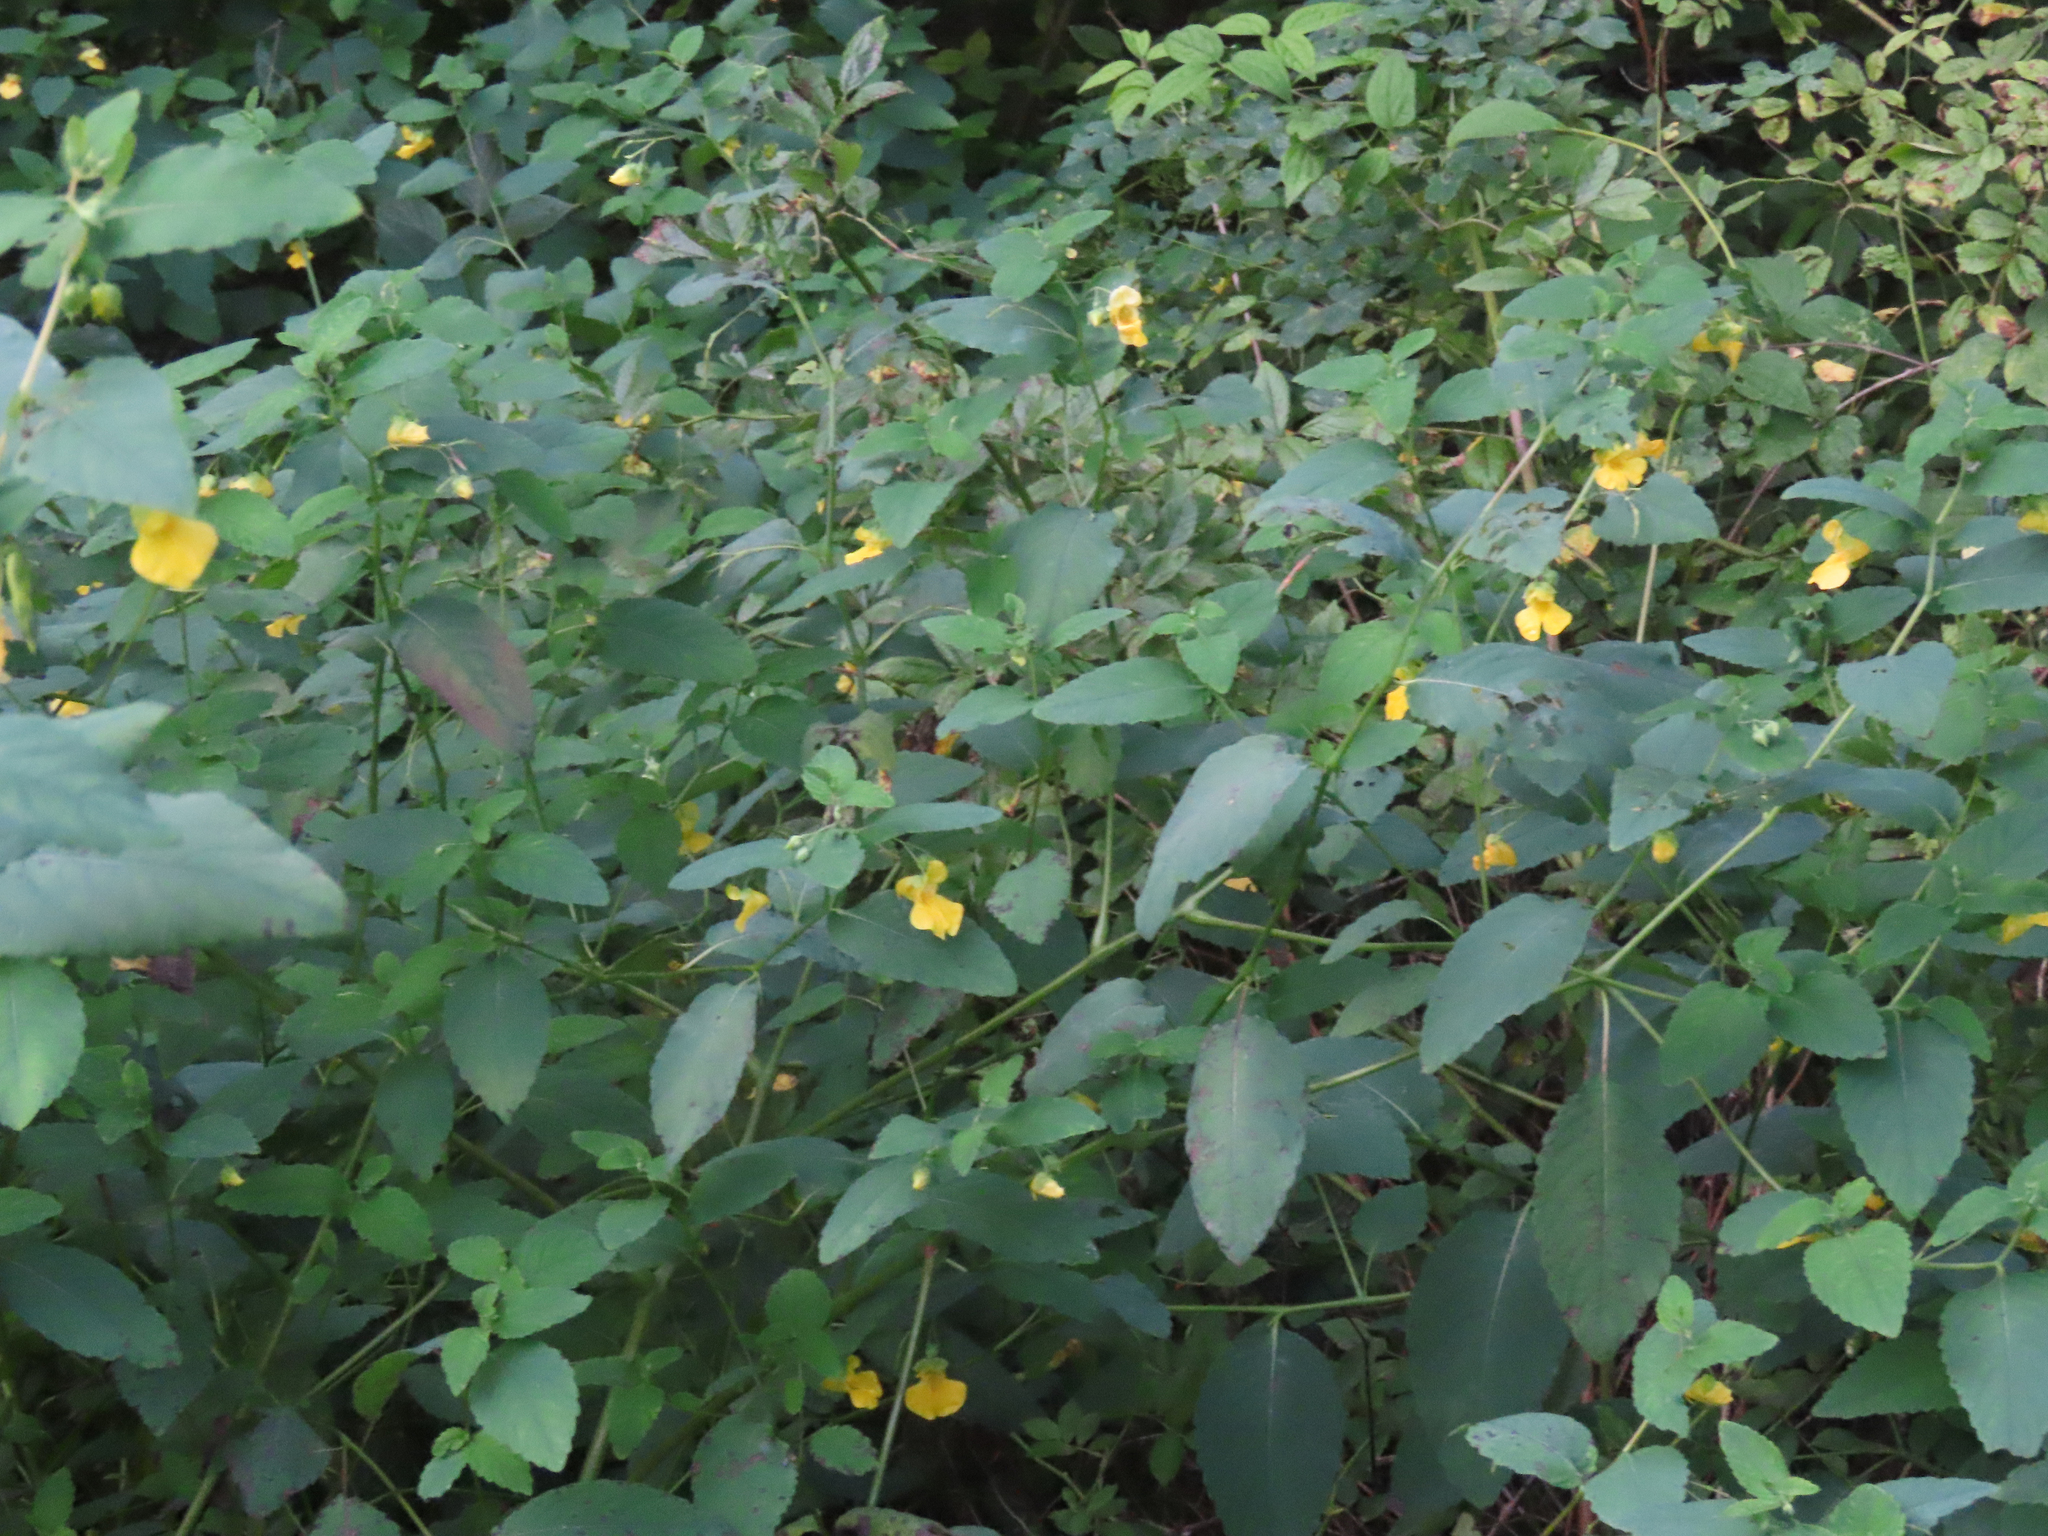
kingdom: Plantae
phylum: Tracheophyta
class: Magnoliopsida
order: Ericales
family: Balsaminaceae
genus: Impatiens
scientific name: Impatiens pallida
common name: Pale snapweed
